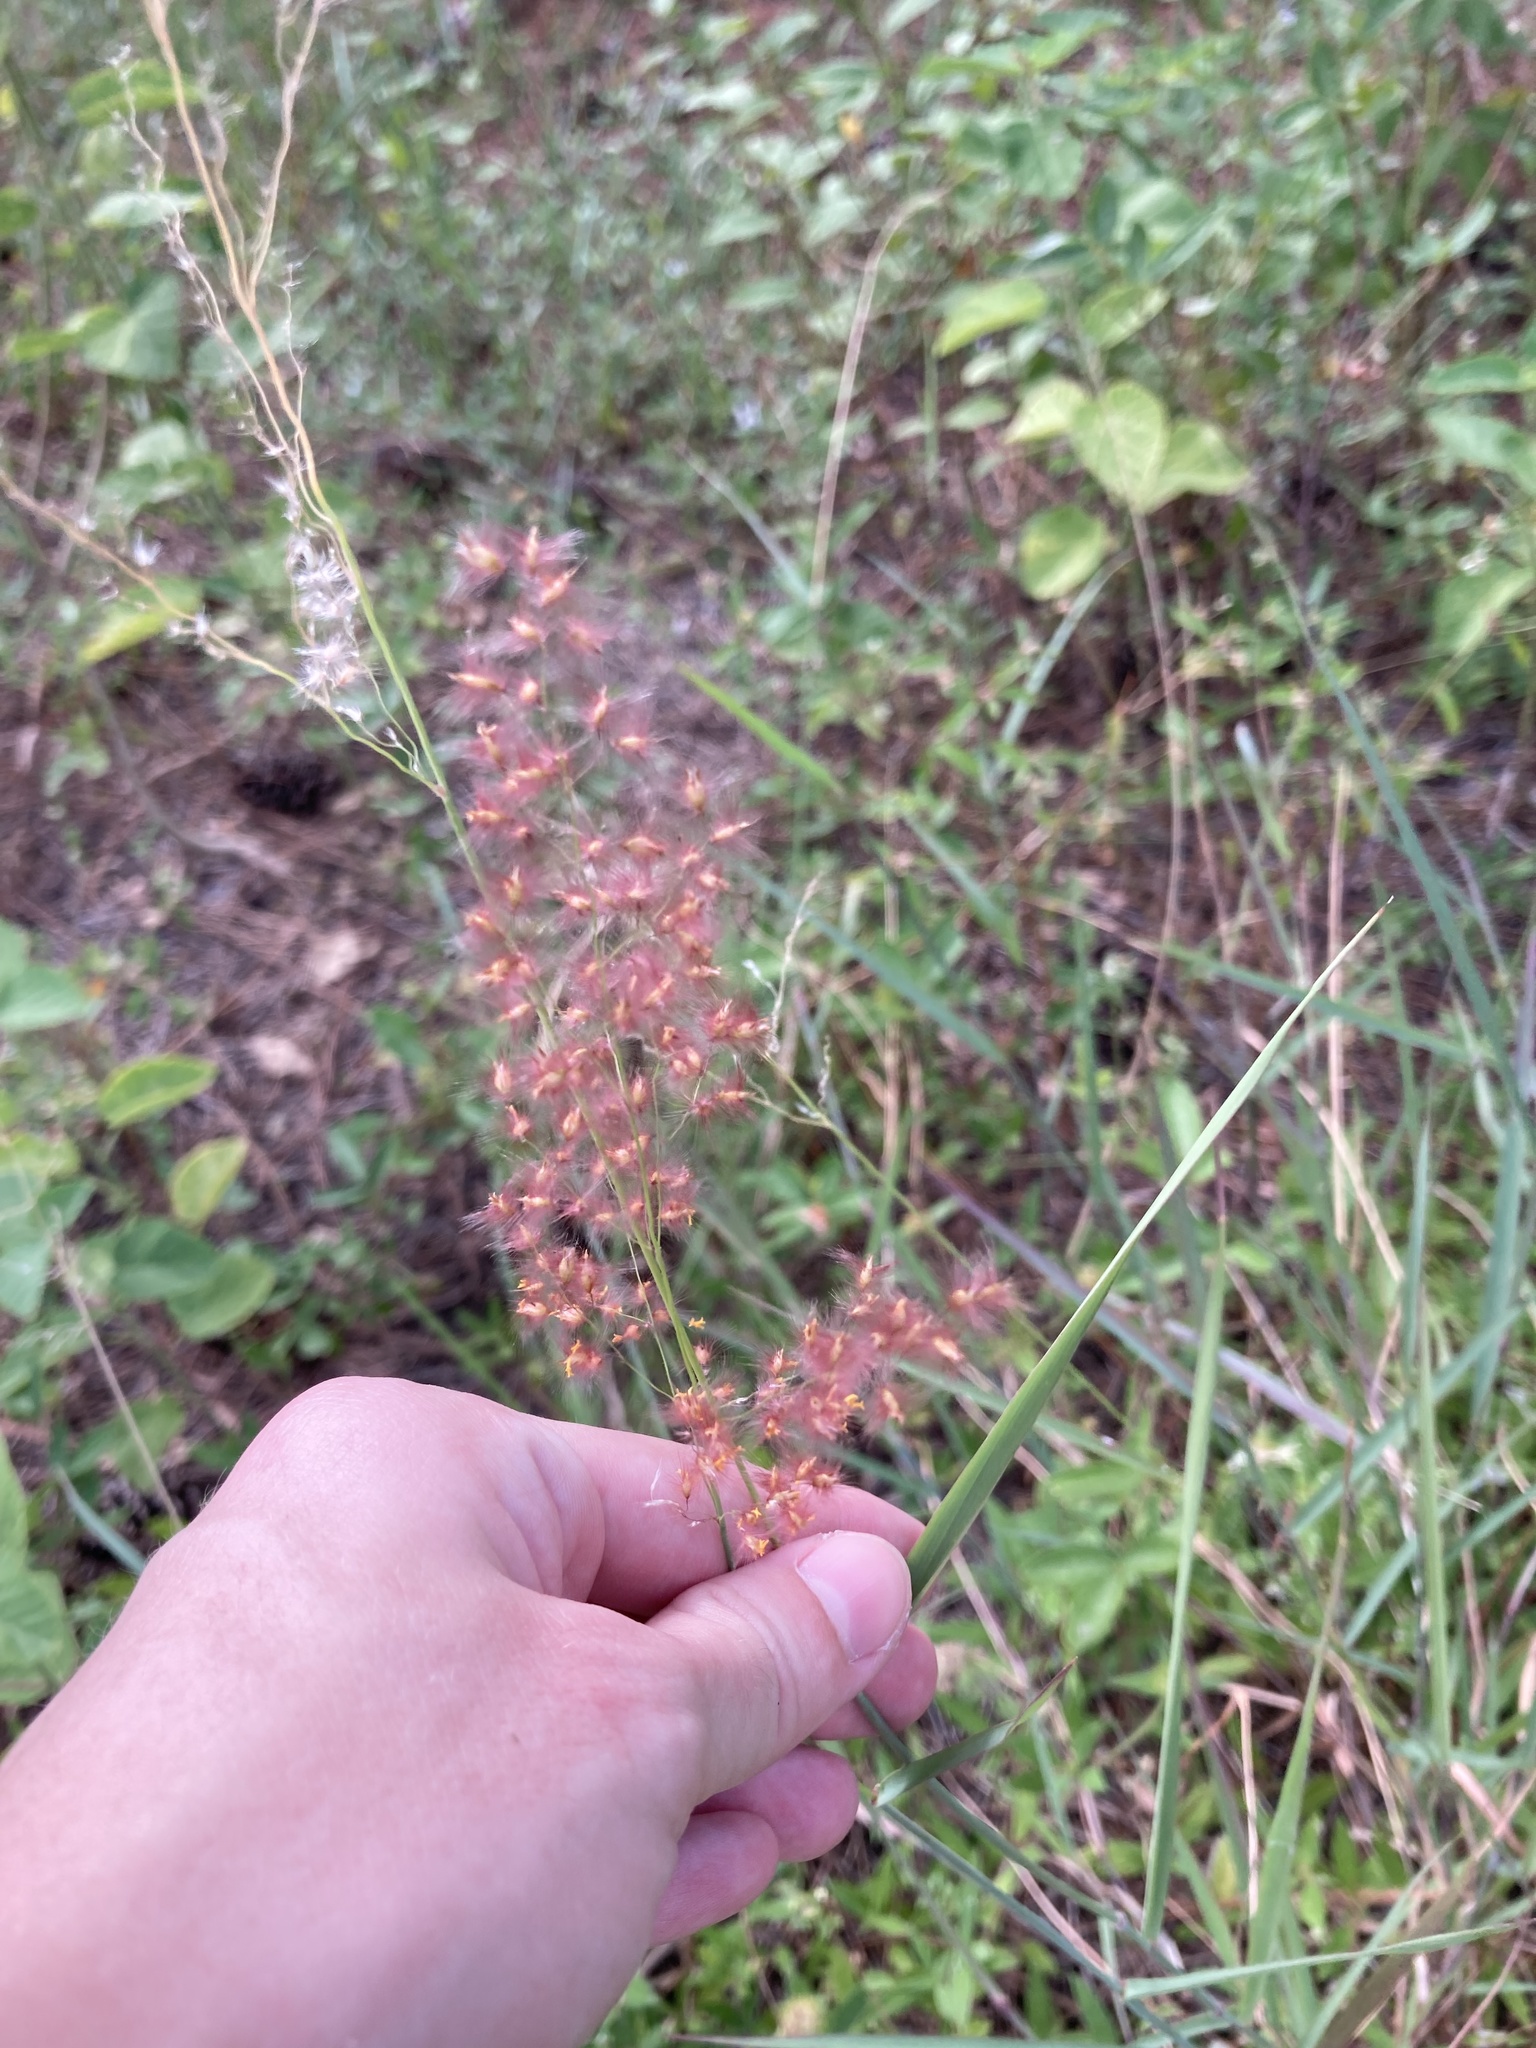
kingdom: Plantae
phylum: Tracheophyta
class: Liliopsida
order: Poales
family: Poaceae
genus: Melinis
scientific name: Melinis repens
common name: Rose natal grass
